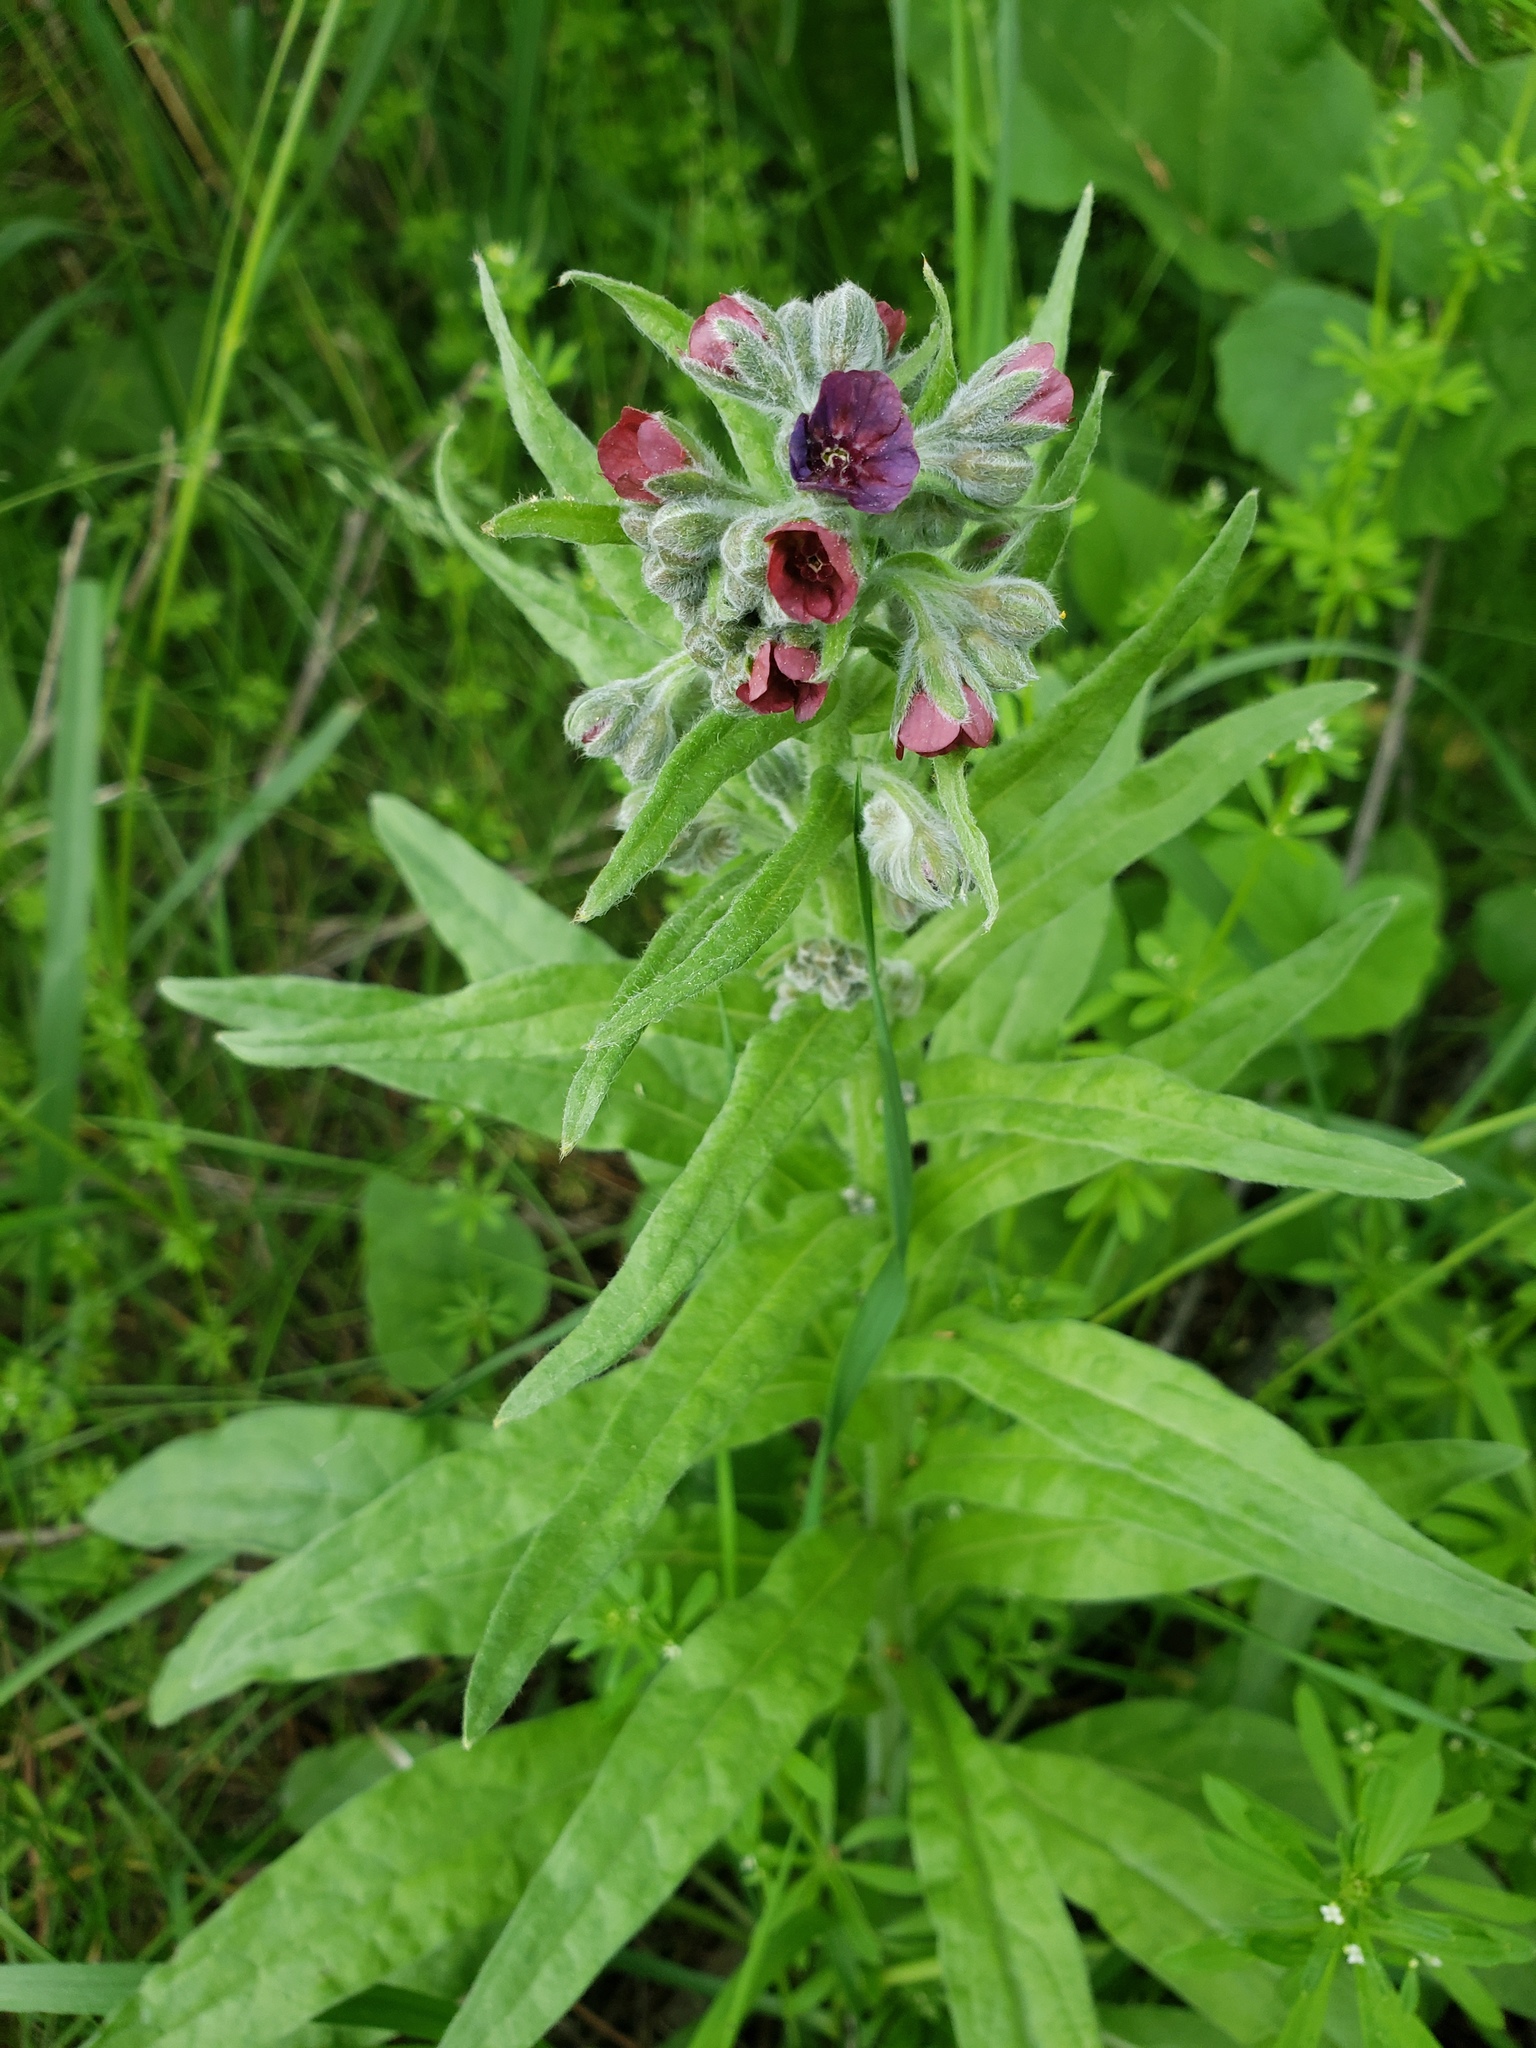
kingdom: Plantae
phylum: Tracheophyta
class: Magnoliopsida
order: Boraginales
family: Boraginaceae
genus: Cynoglossum
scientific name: Cynoglossum officinale
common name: Hound's-tongue
